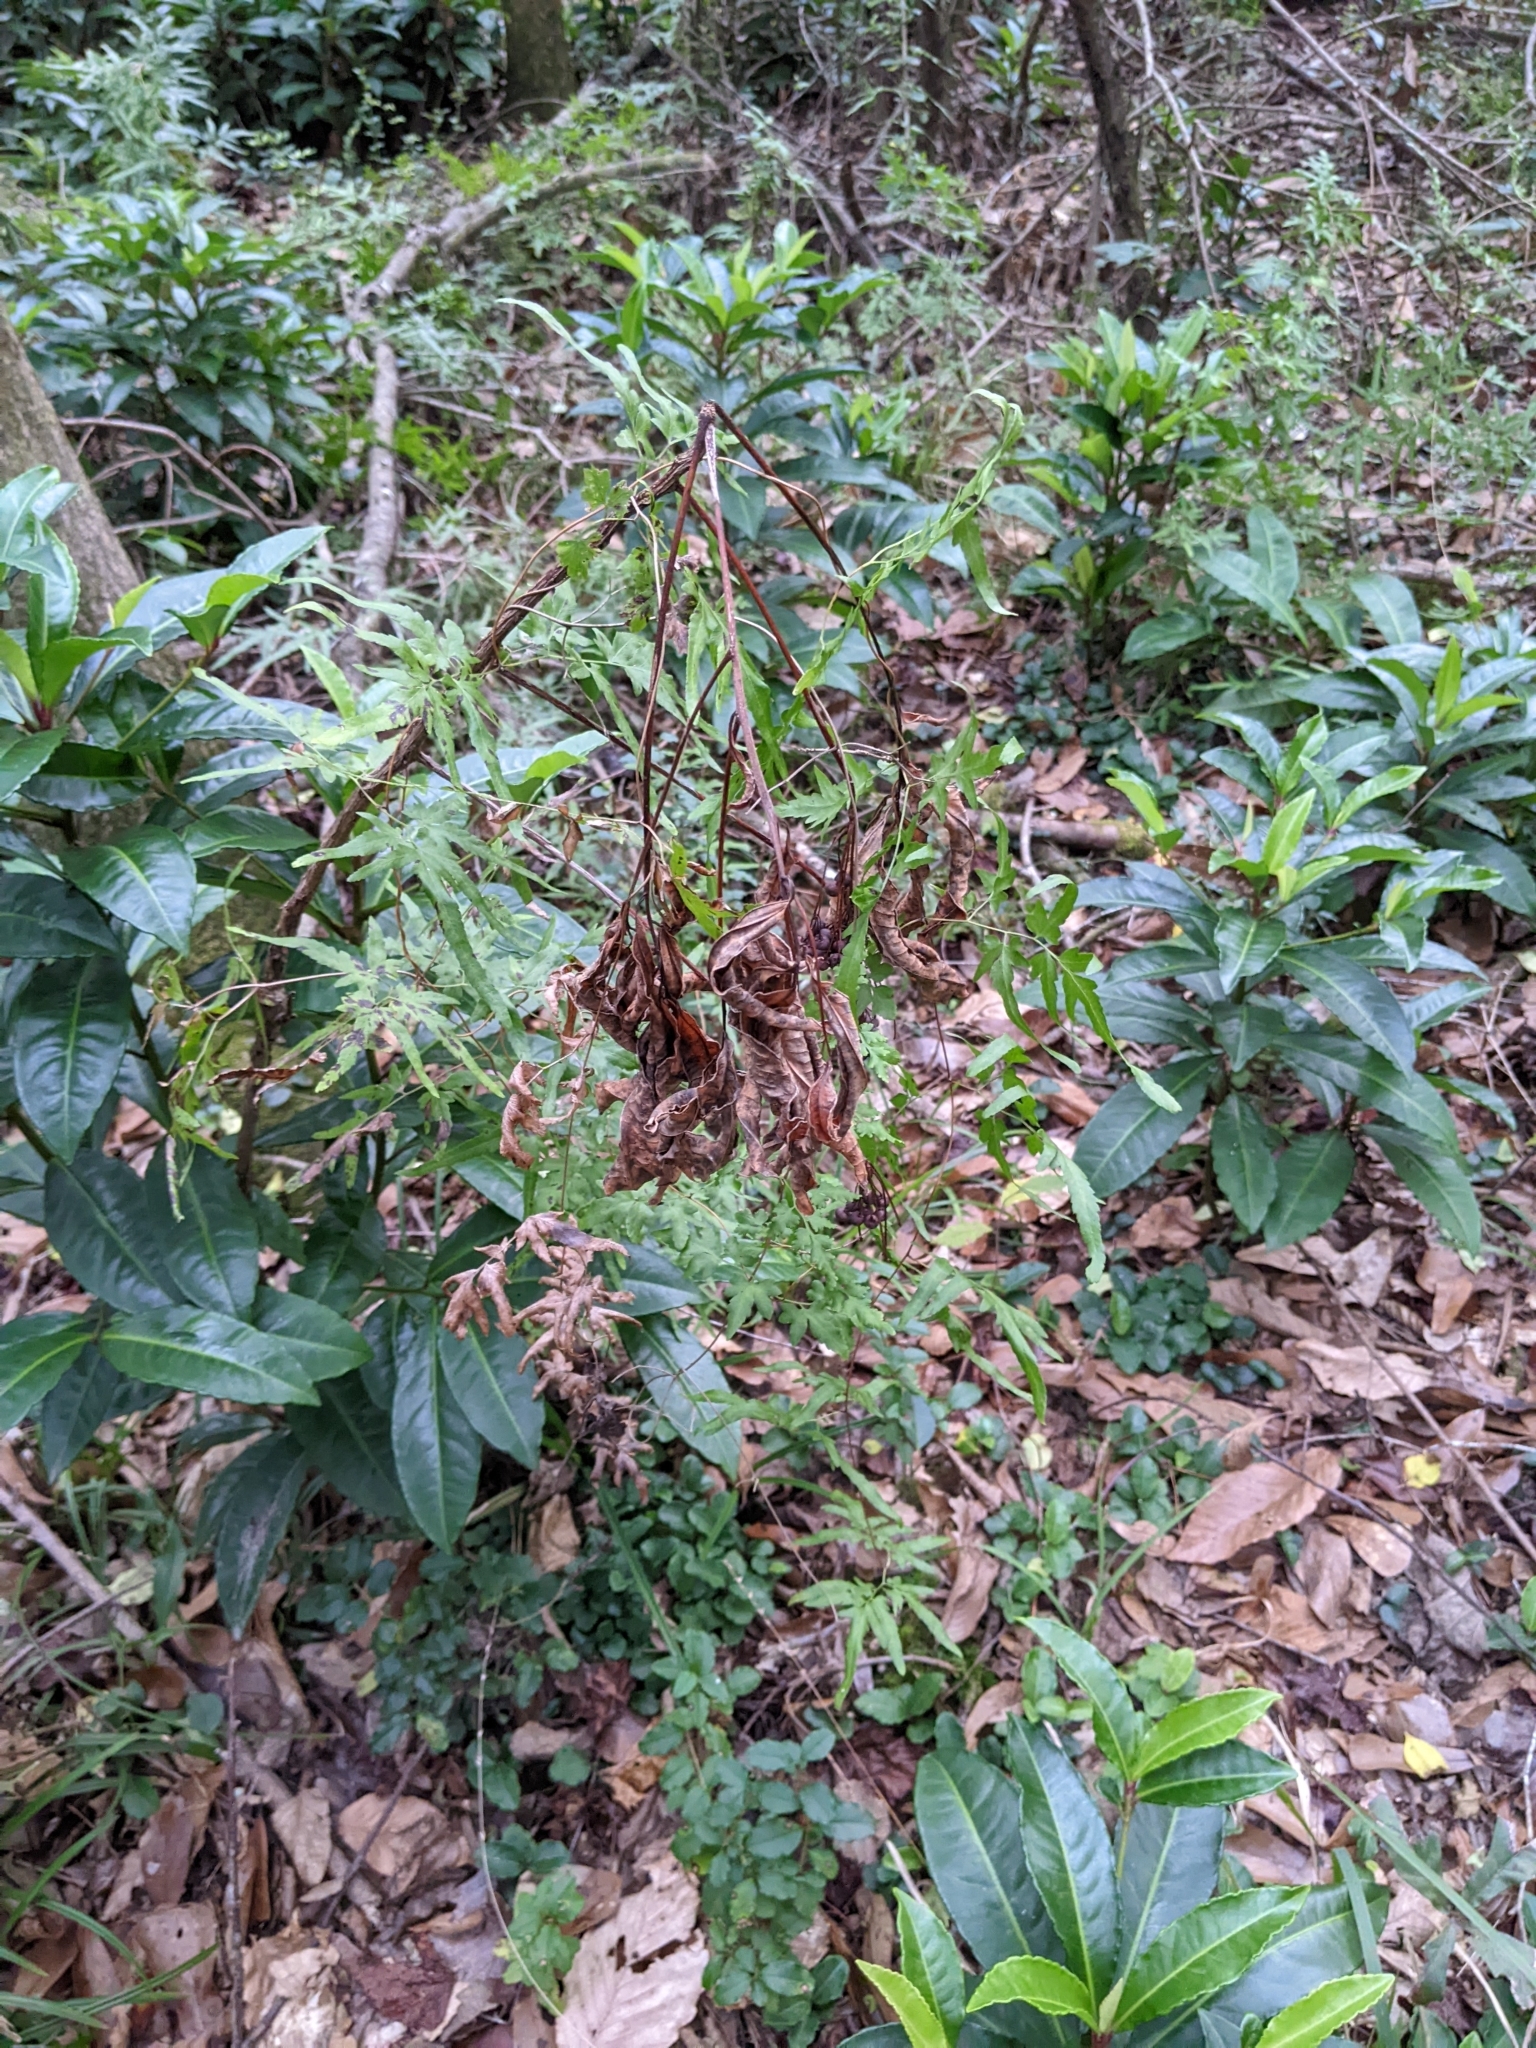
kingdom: Plantae
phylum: Tracheophyta
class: Polypodiopsida
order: Schizaeales
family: Lygodiaceae
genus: Lygodium
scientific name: Lygodium japonicum
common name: Japanese climbing fern
